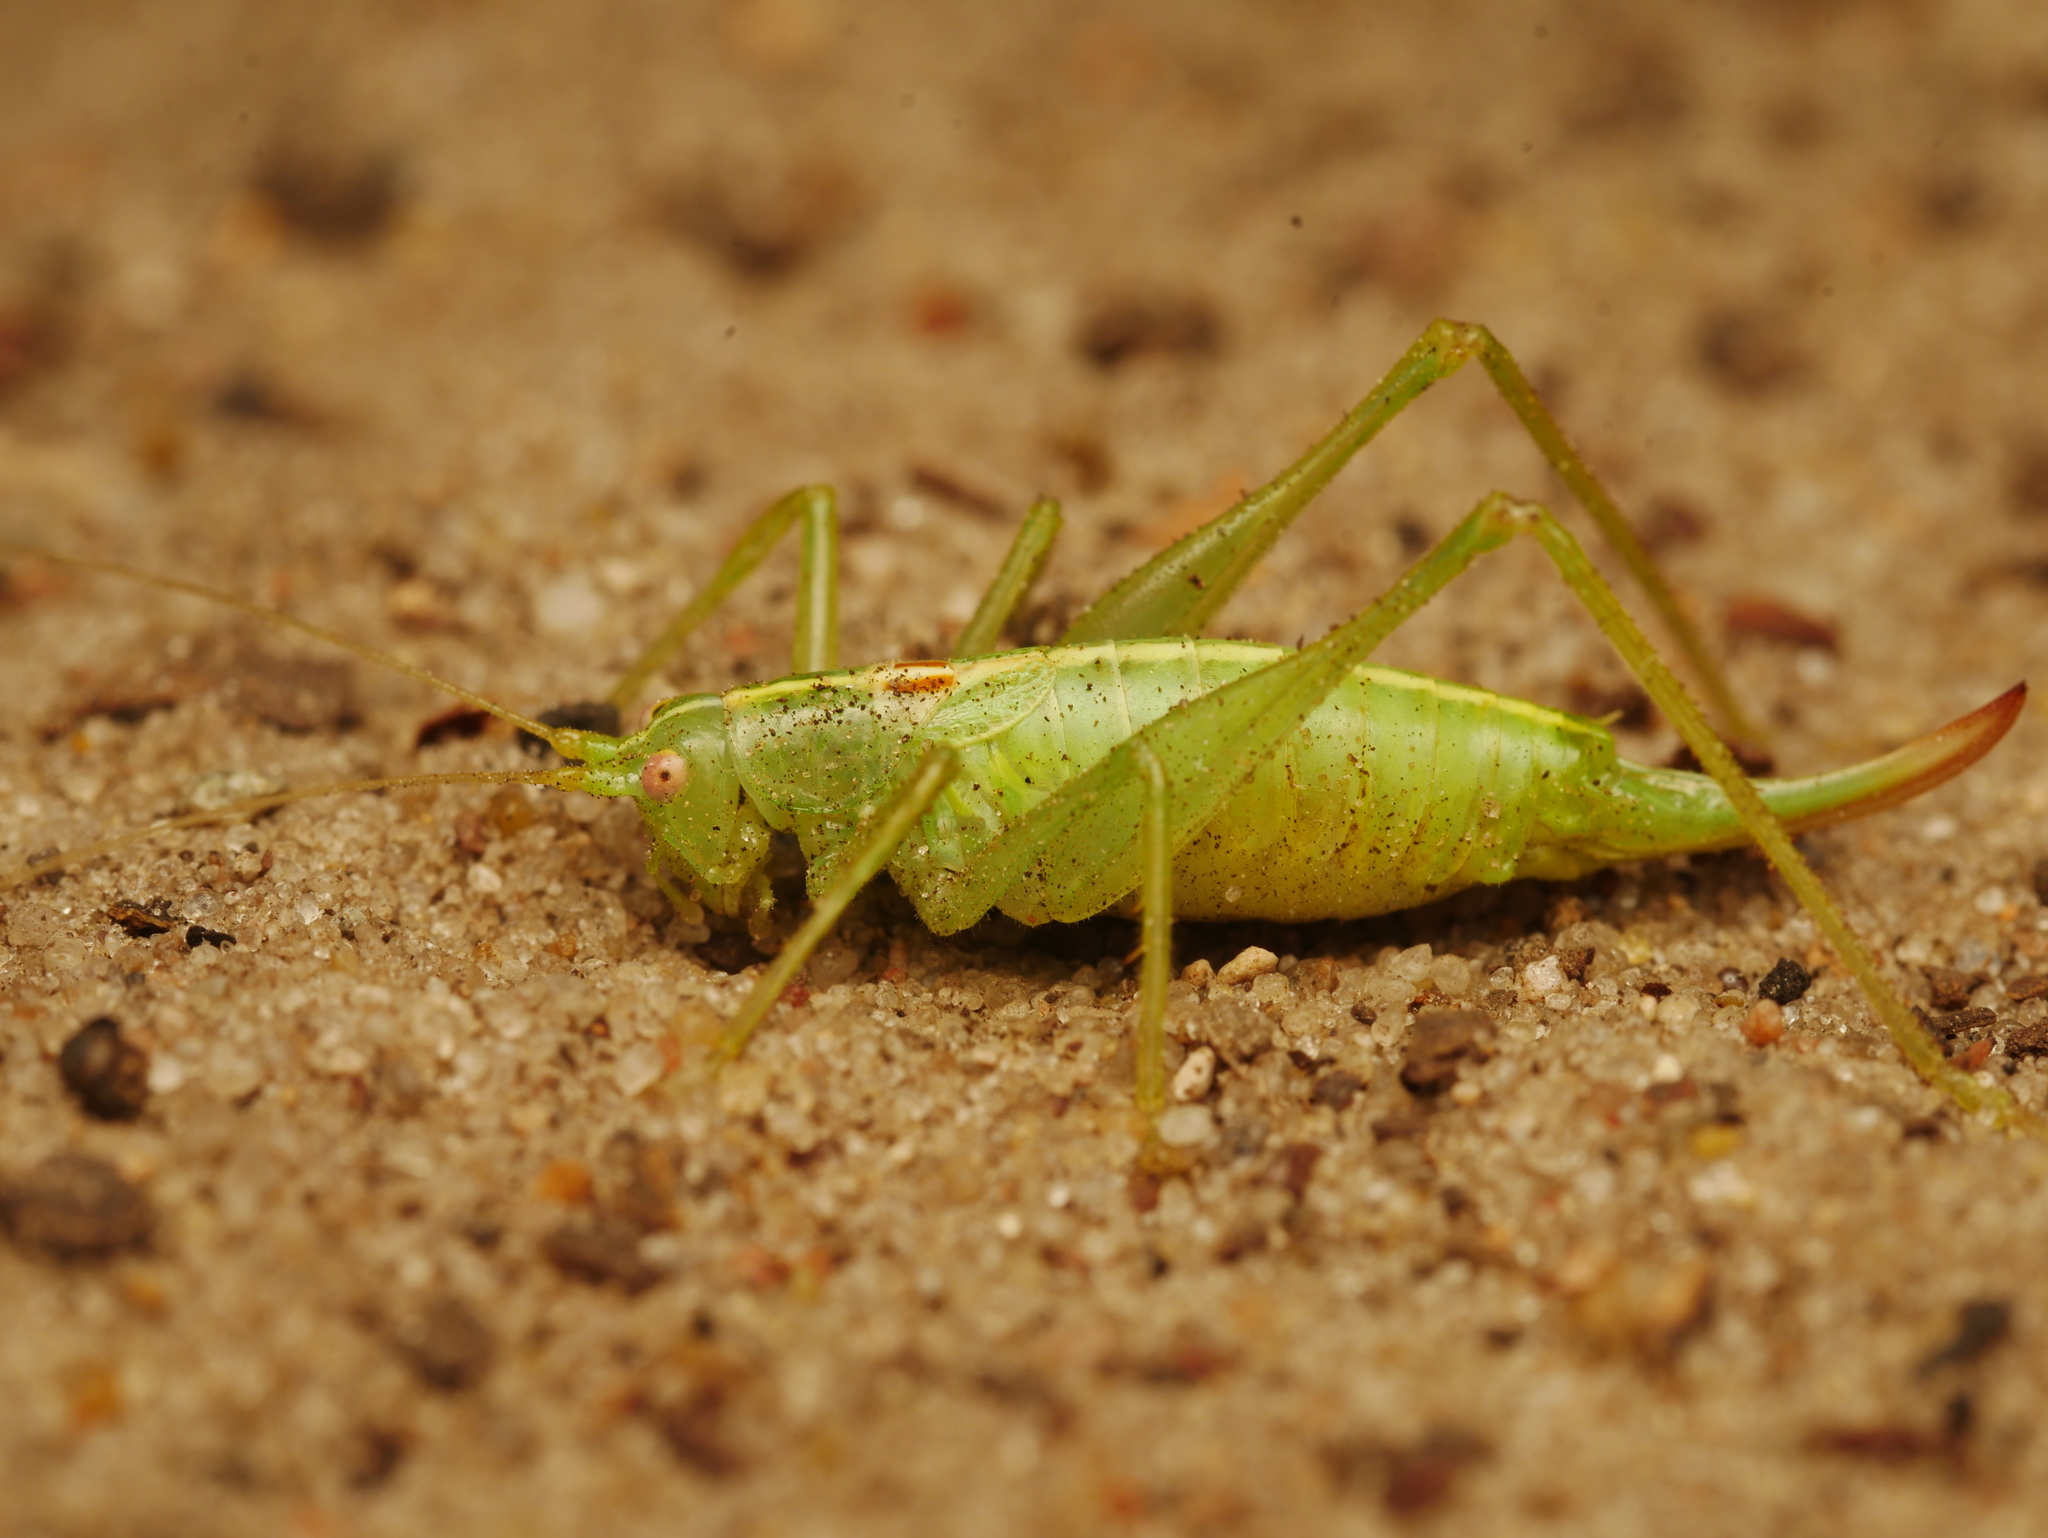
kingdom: Animalia
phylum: Arthropoda
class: Insecta
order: Orthoptera
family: Tettigoniidae
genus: Meconema
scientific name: Meconema meridionale
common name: Southern oak bush-cricket
